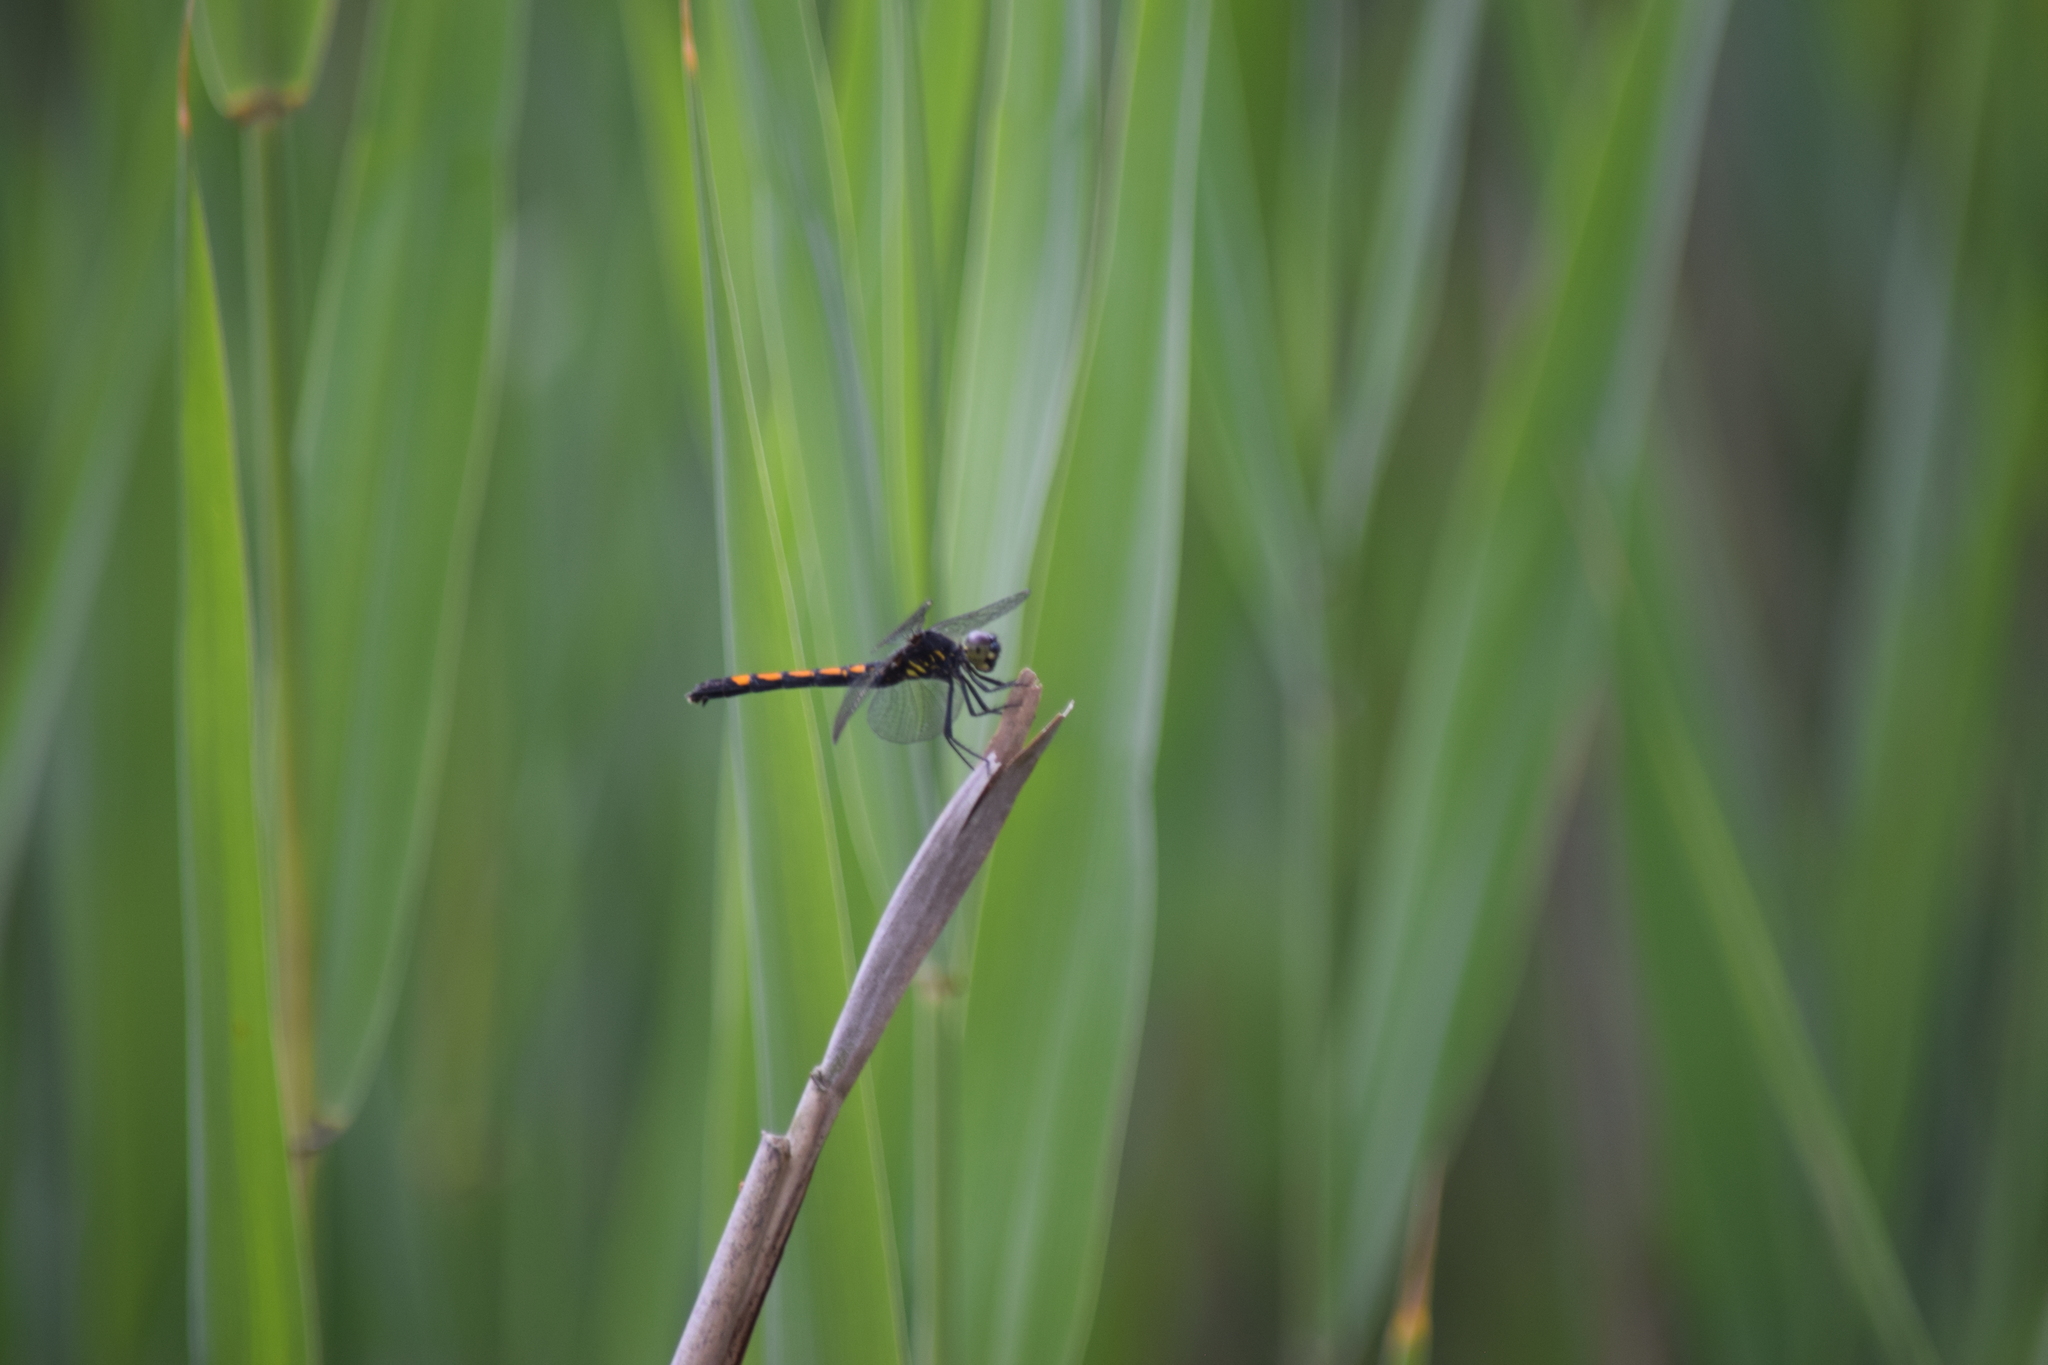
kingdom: Animalia
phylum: Arthropoda
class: Insecta
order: Odonata
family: Libellulidae
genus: Erythrodiplax
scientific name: Erythrodiplax berenice
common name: Seaside dragonlet
